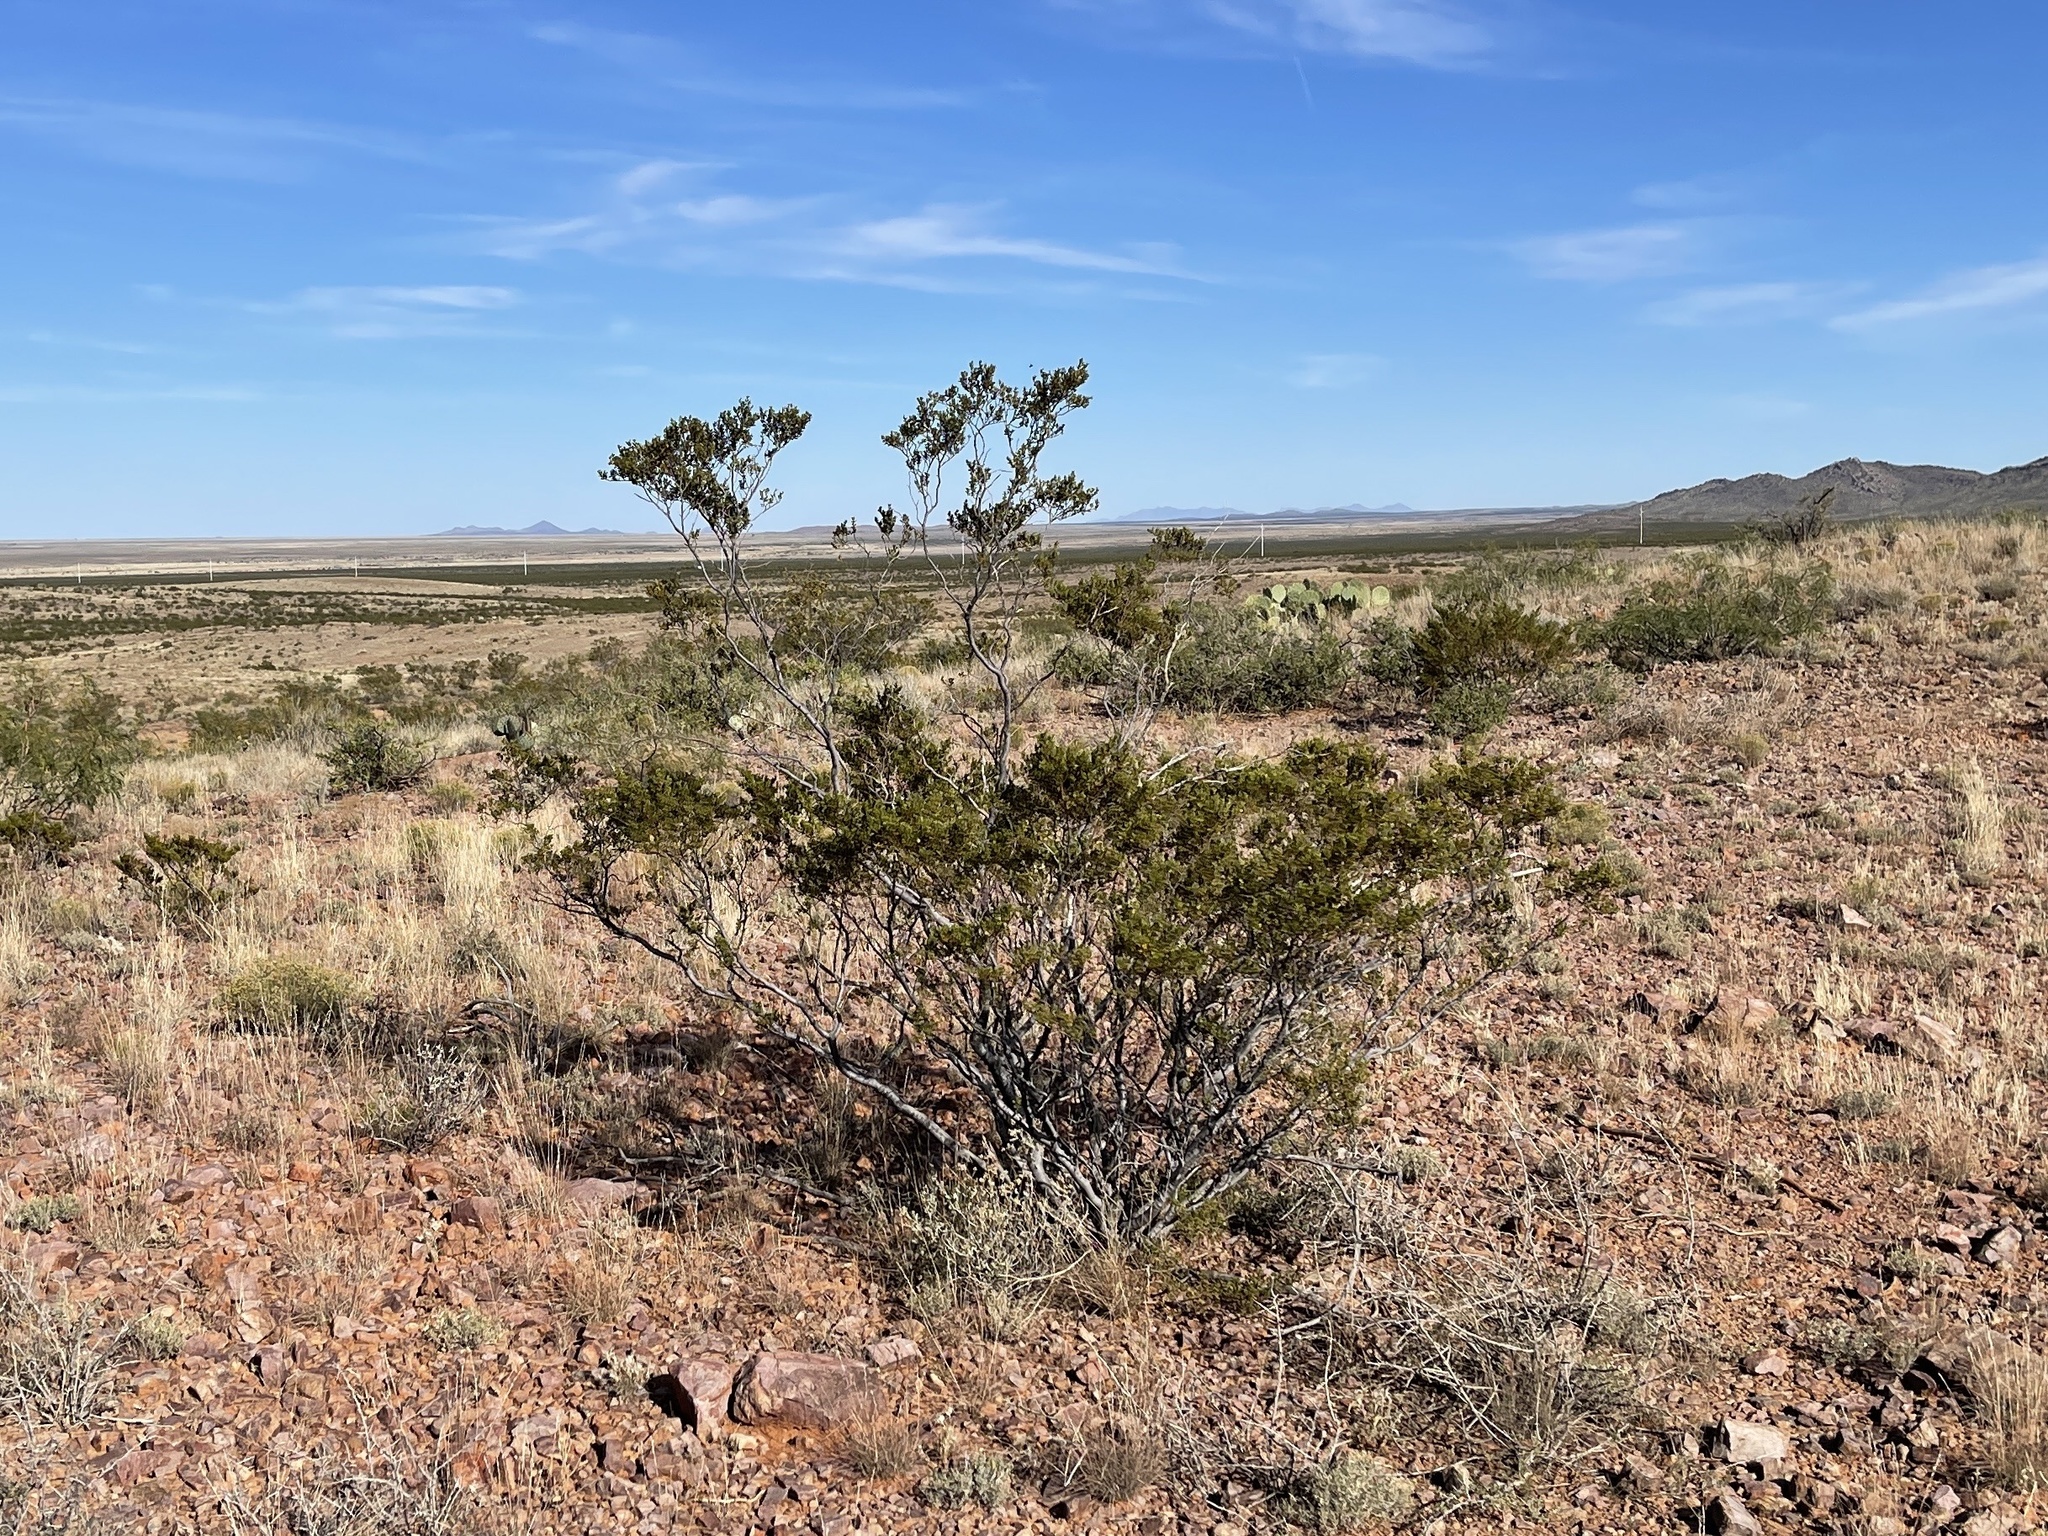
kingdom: Plantae
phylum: Tracheophyta
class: Magnoliopsida
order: Zygophyllales
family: Zygophyllaceae
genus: Larrea
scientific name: Larrea tridentata
